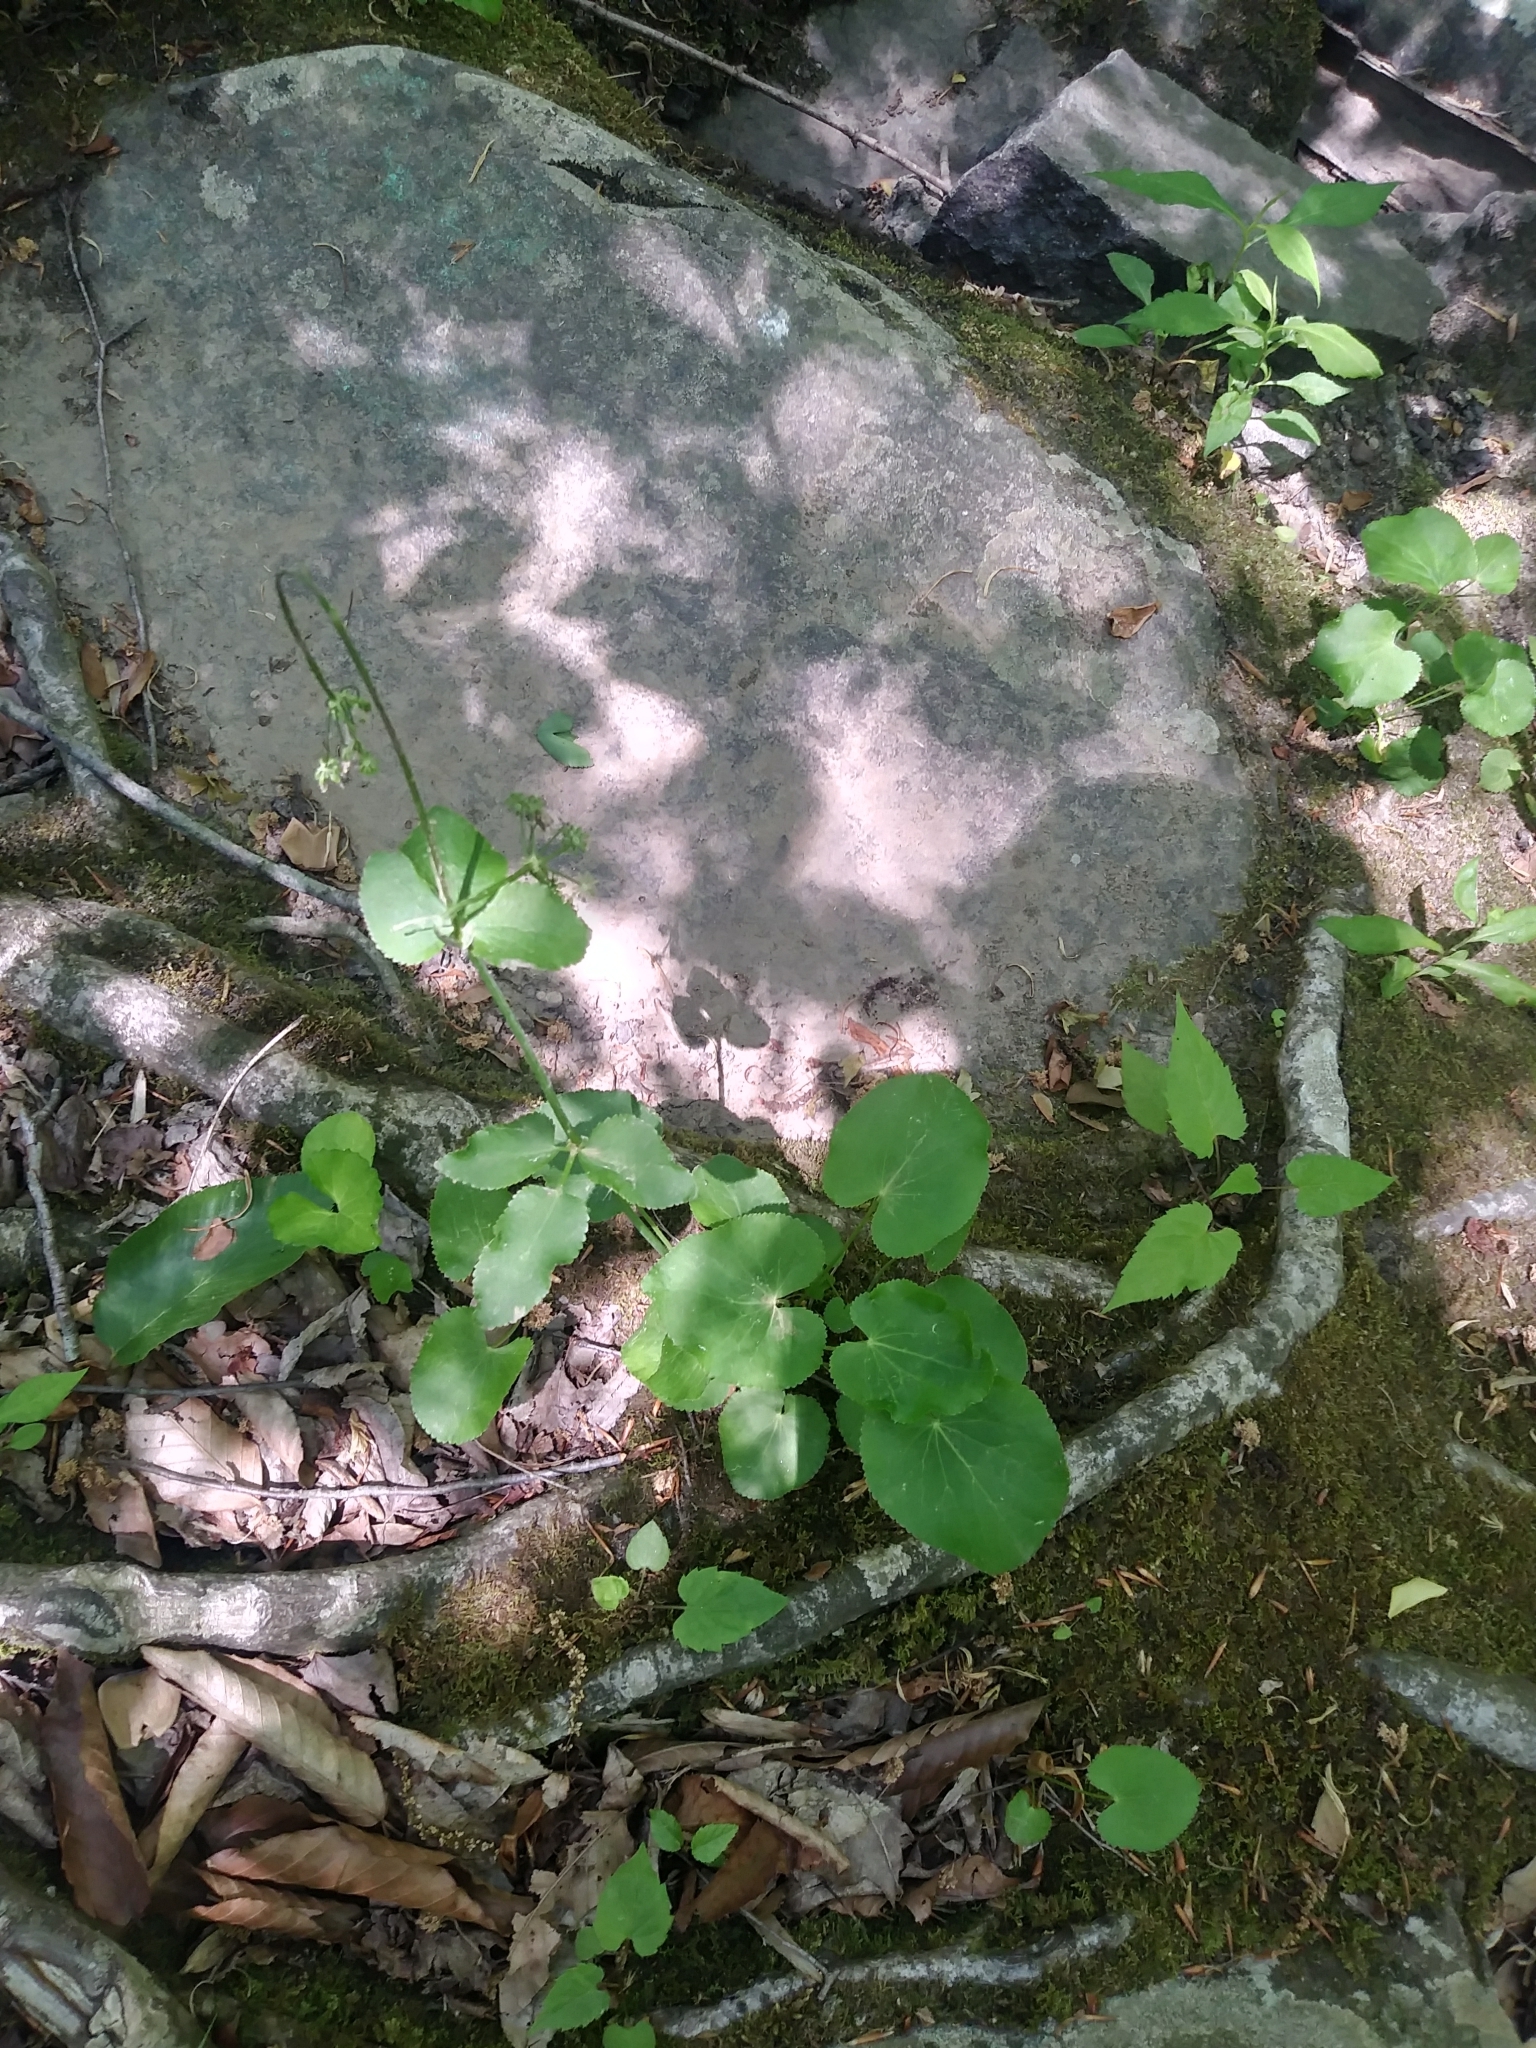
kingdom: Plantae
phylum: Tracheophyta
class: Magnoliopsida
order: Apiales
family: Apiaceae
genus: Zizia
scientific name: Zizia aptera
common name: Heart-leaved alexanders
